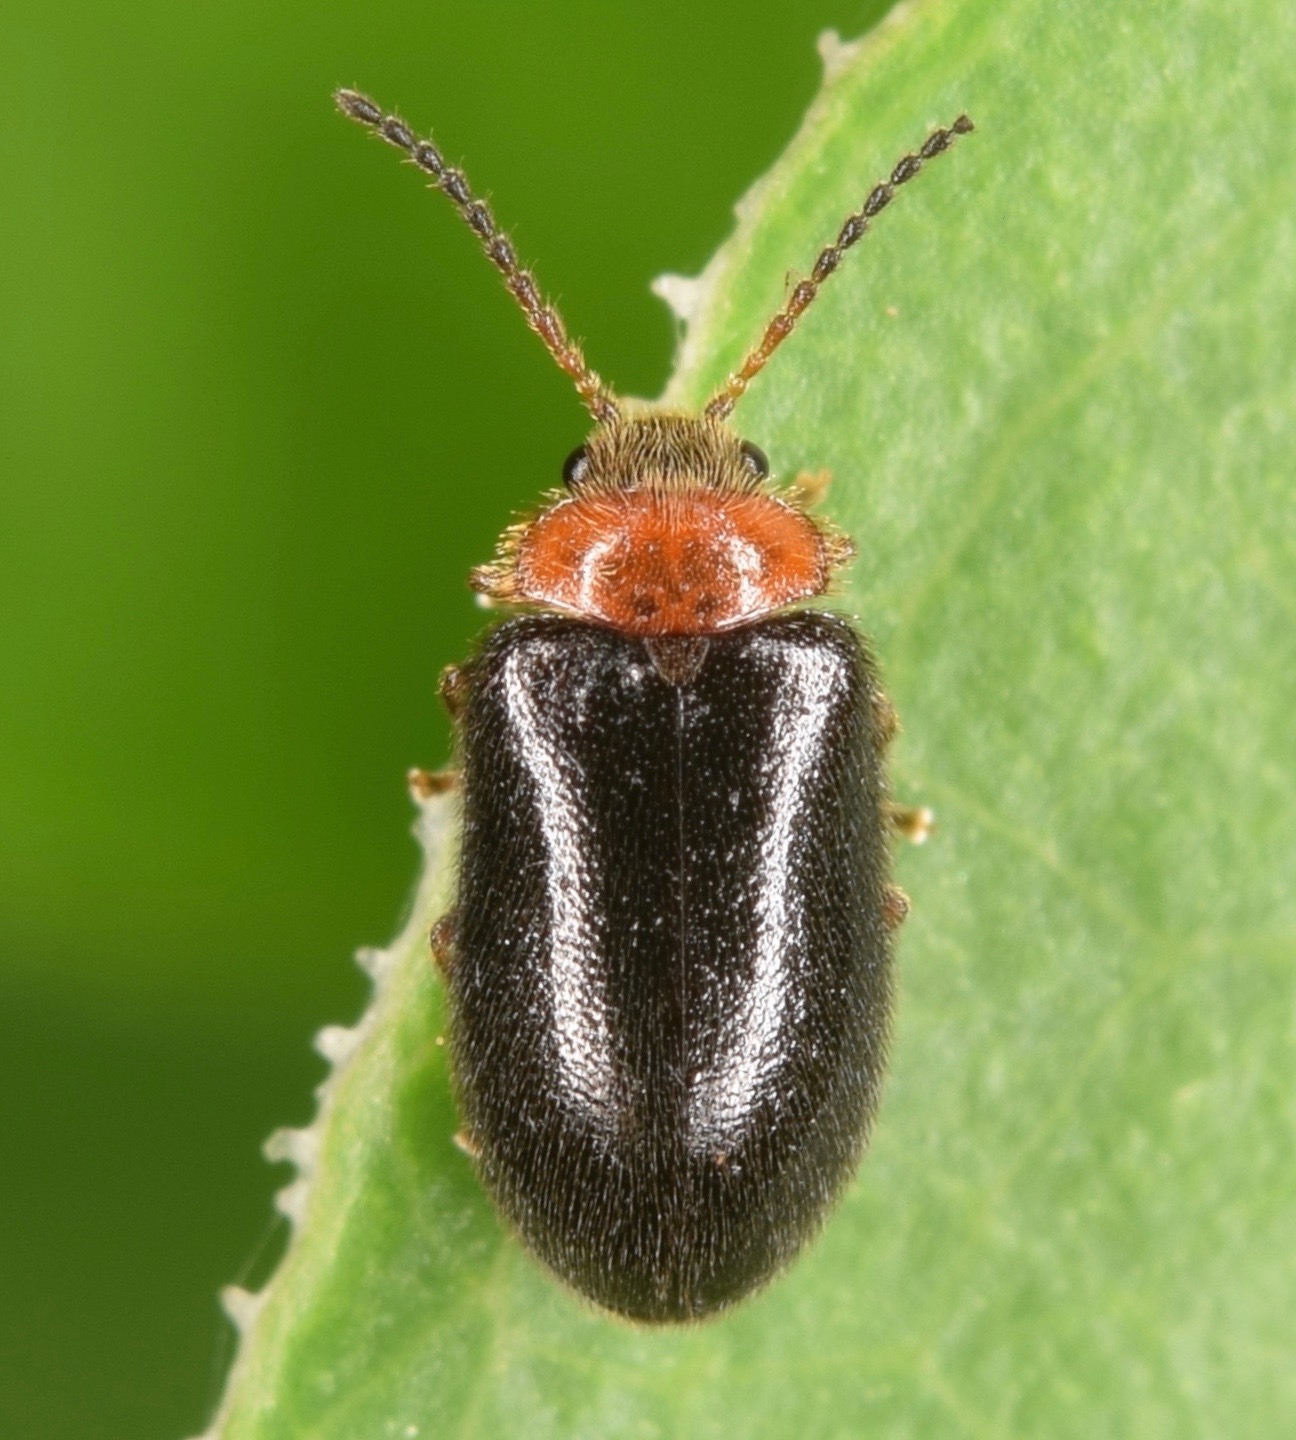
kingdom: Animalia
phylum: Arthropoda
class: Insecta
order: Coleoptera
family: Scirtidae
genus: Cyphon
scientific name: Cyphon collaris
